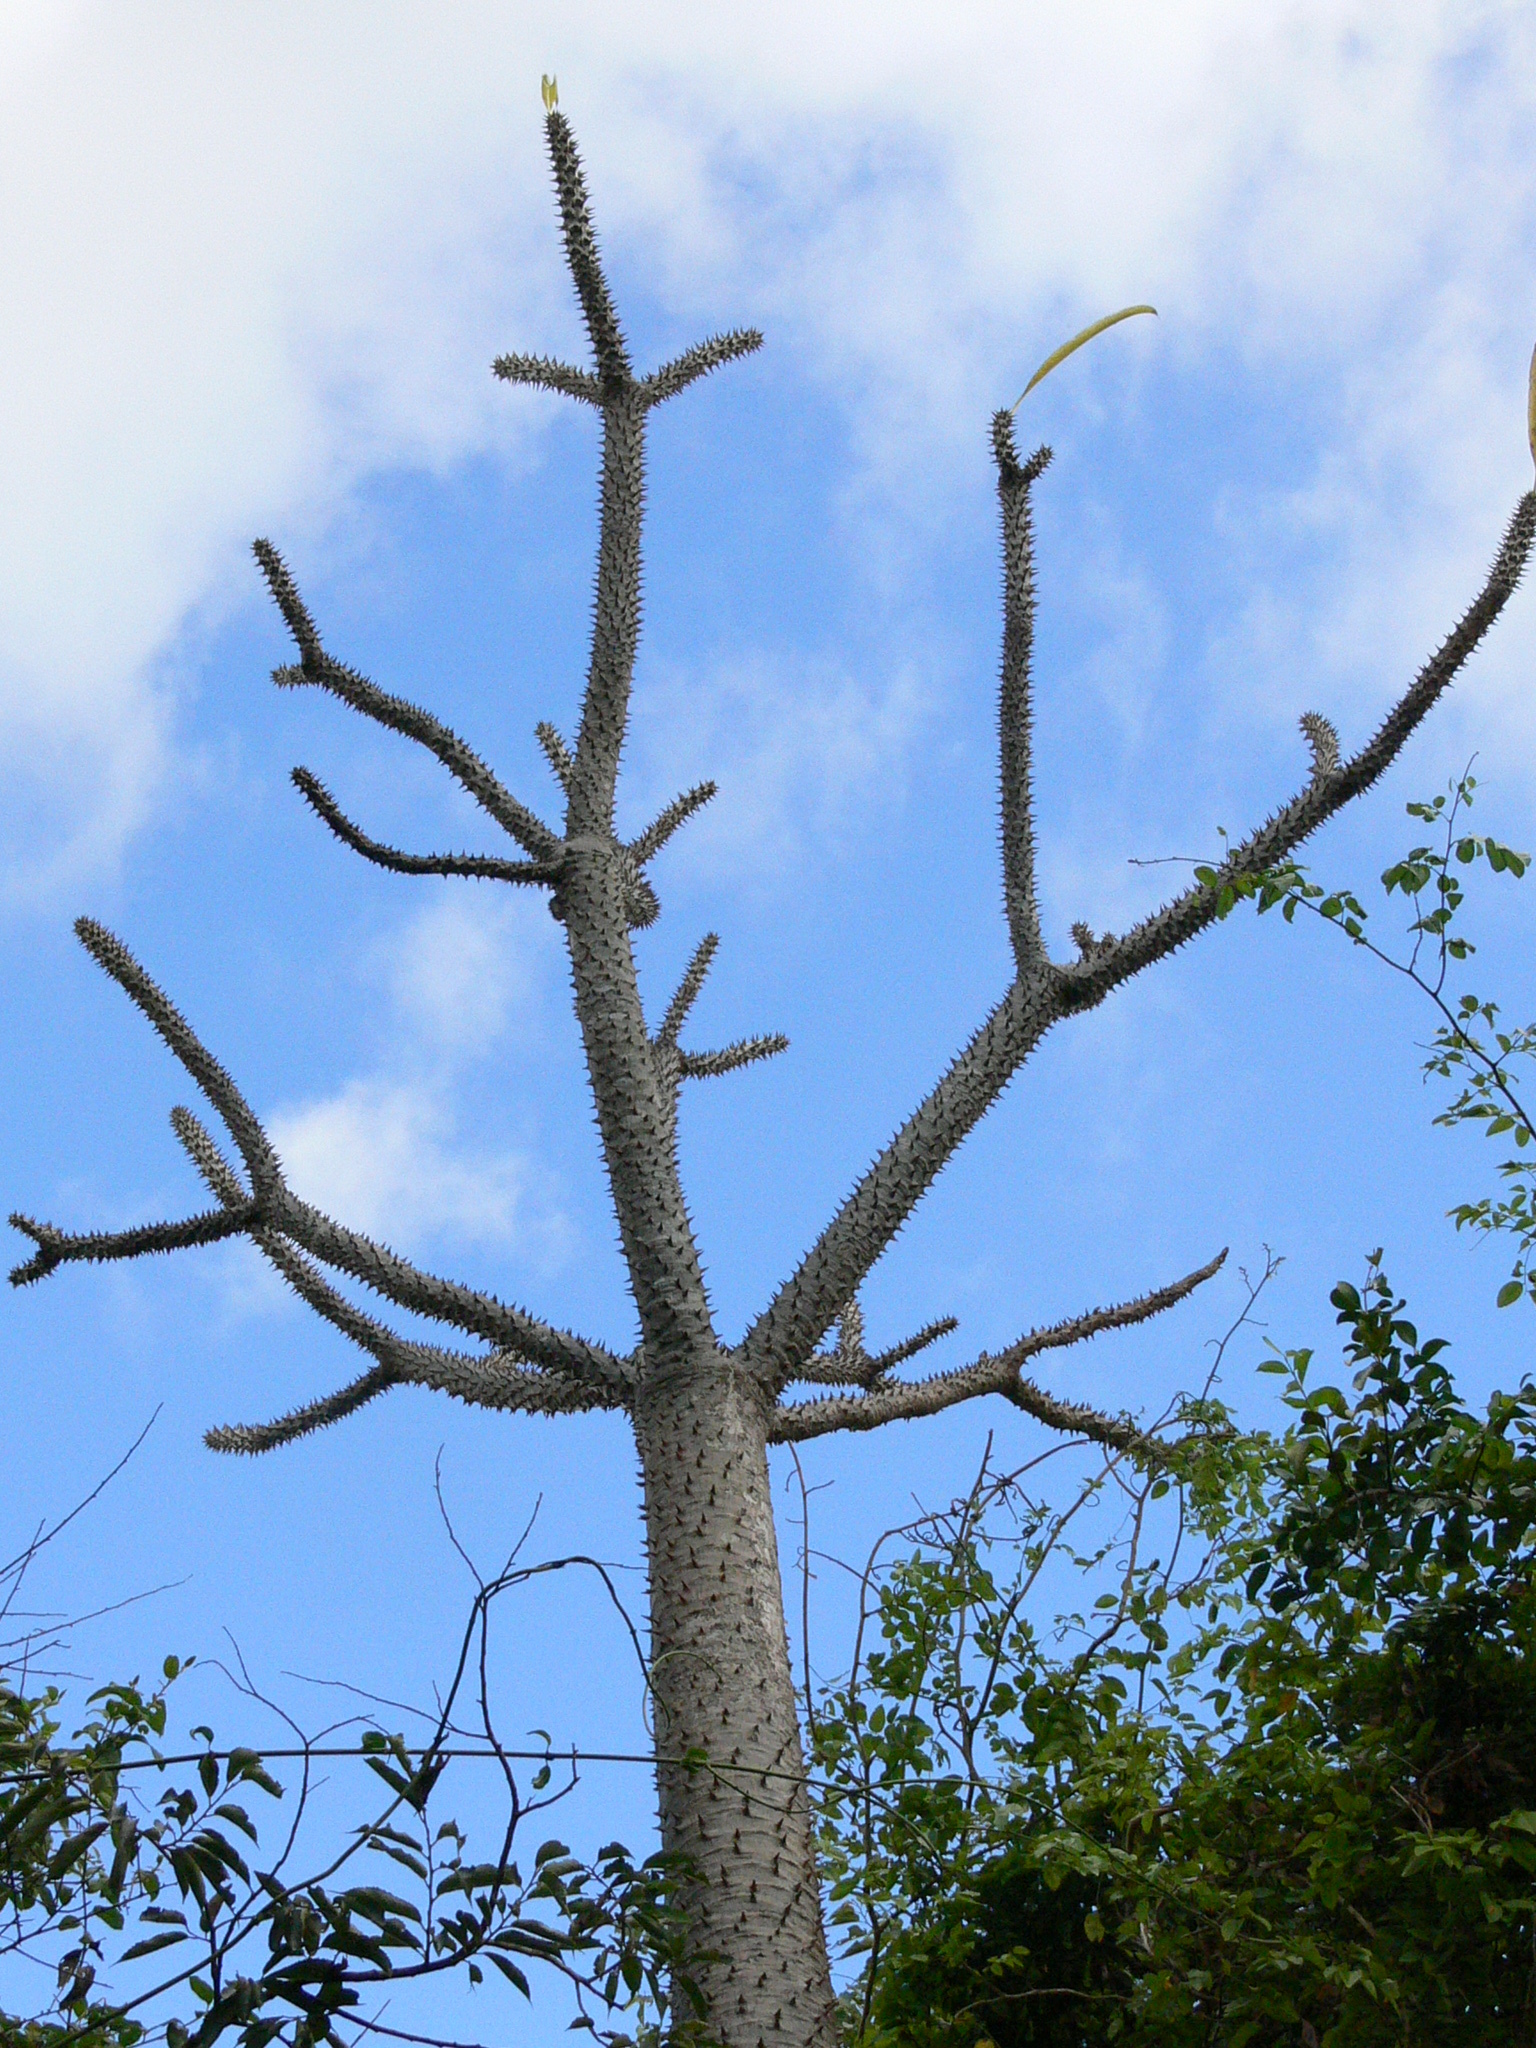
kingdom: Plantae
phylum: Tracheophyta
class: Magnoliopsida
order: Gentianales
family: Apocynaceae
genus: Pachypodium
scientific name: Pachypodium rutenbergianum
